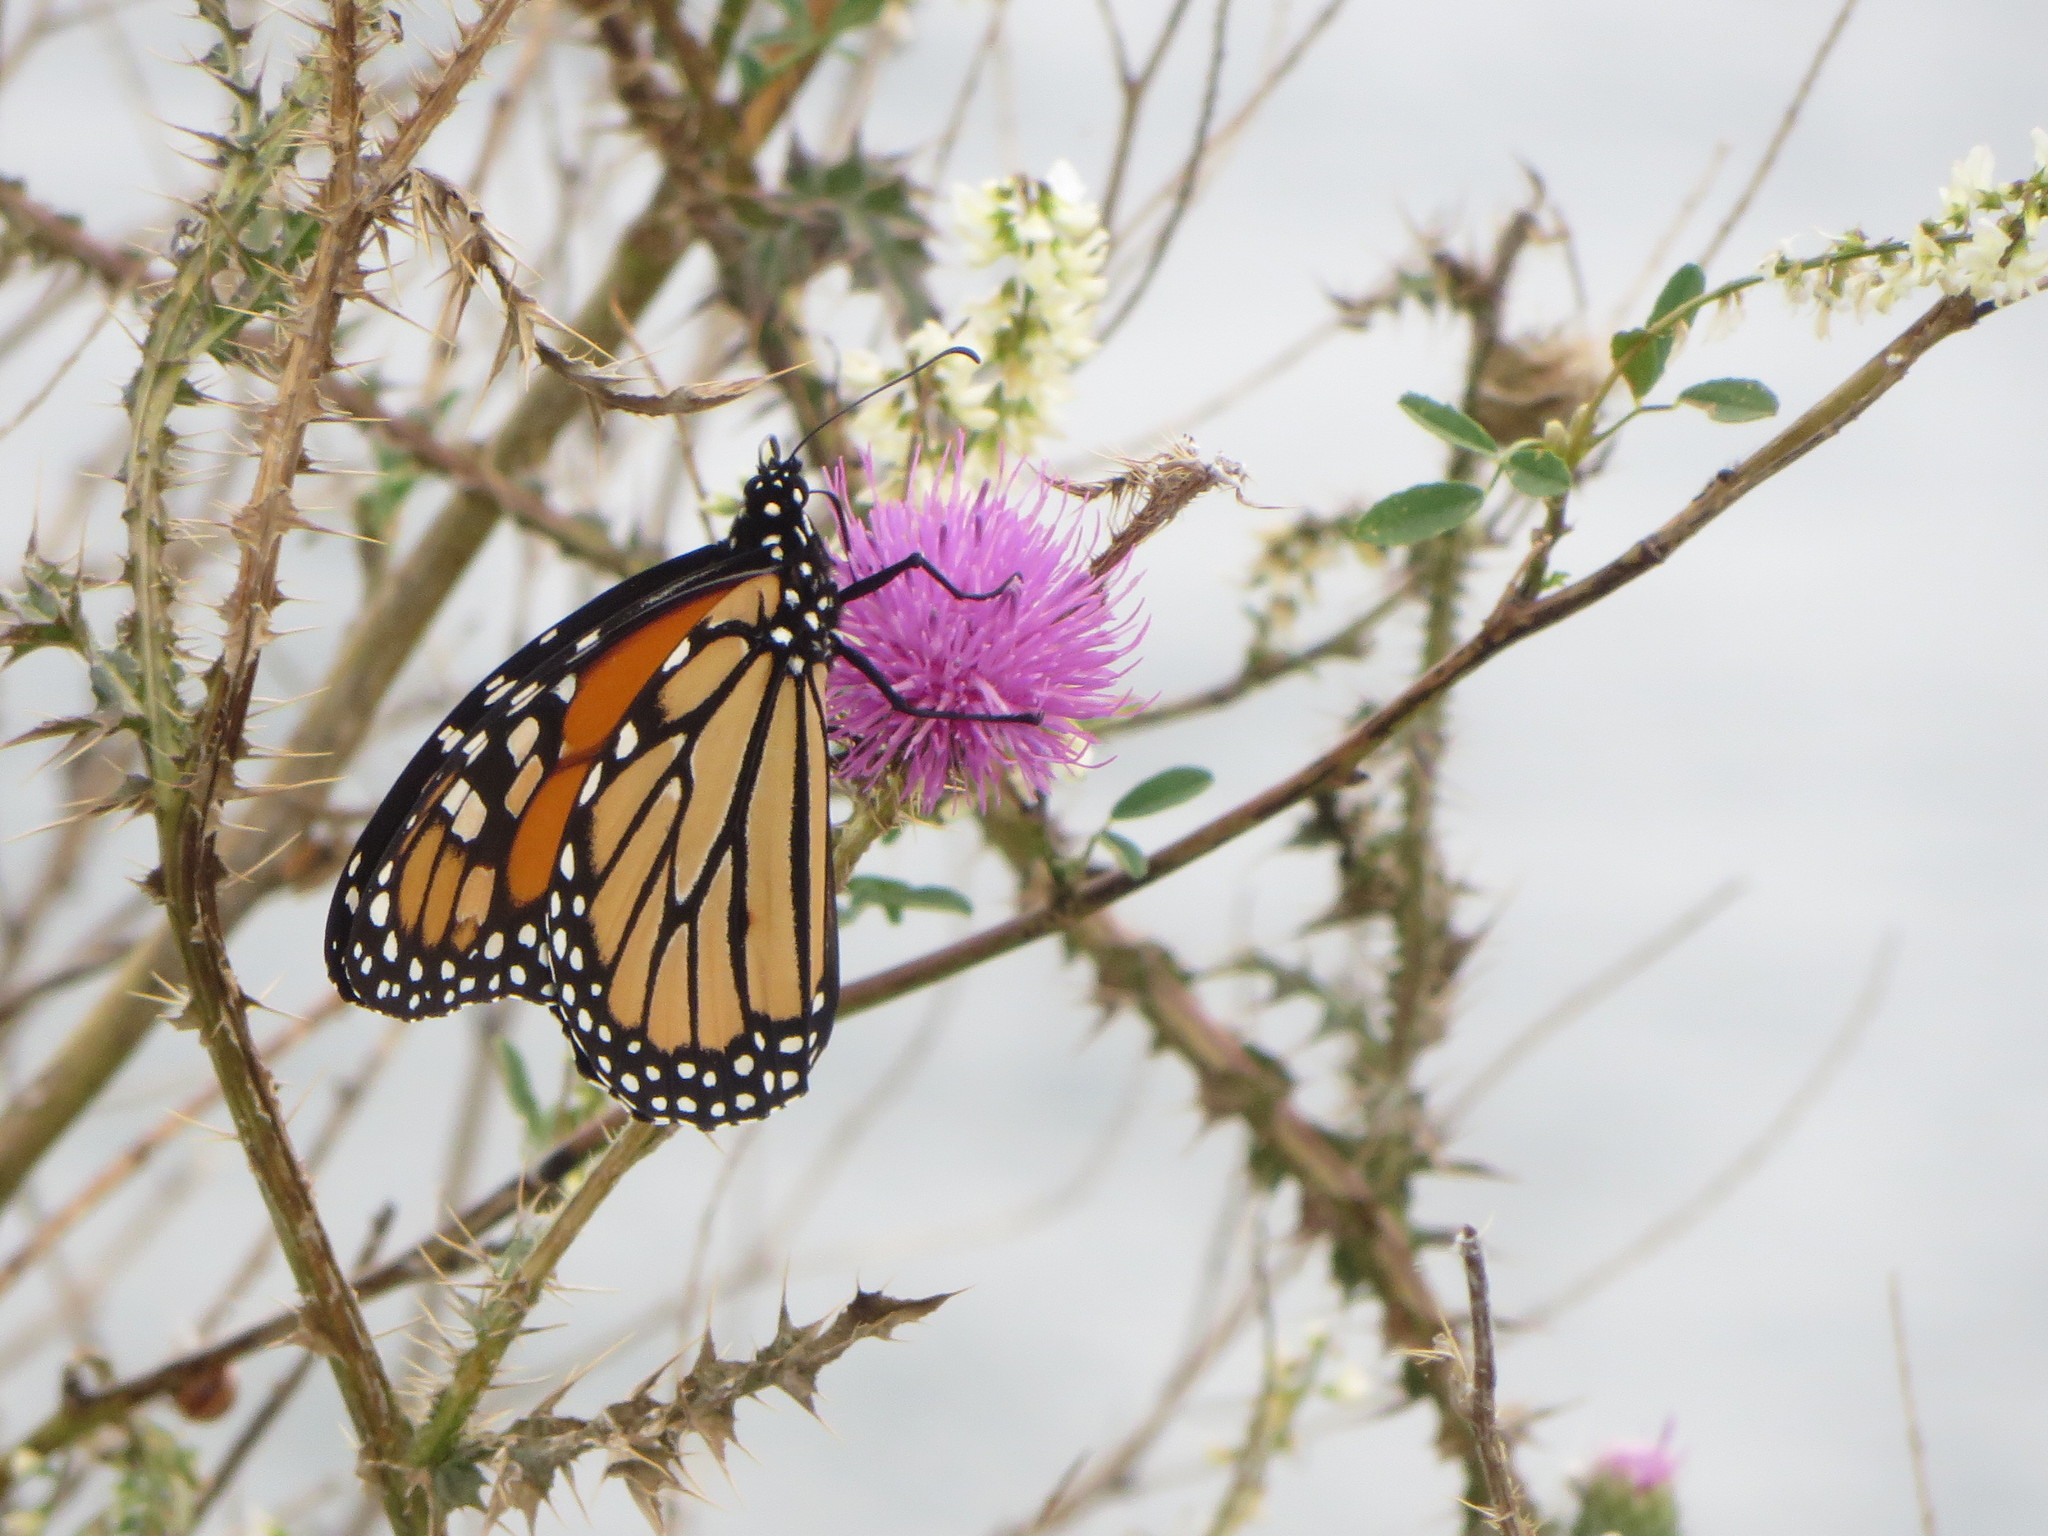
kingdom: Animalia
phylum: Arthropoda
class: Insecta
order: Lepidoptera
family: Nymphalidae
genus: Danaus
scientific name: Danaus plexippus
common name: Monarch
